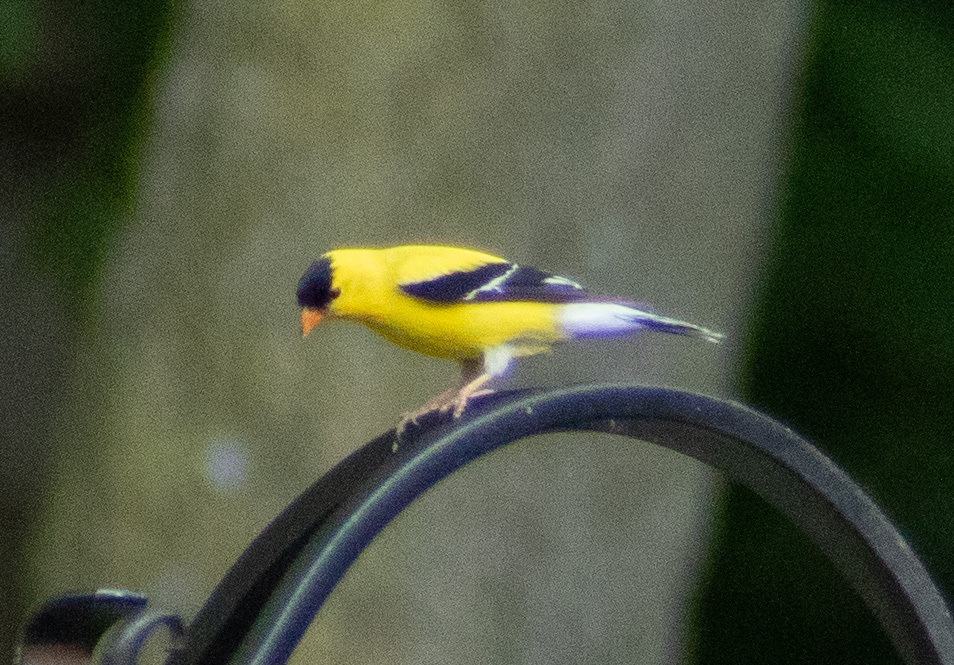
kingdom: Animalia
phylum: Chordata
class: Aves
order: Passeriformes
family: Fringillidae
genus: Spinus
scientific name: Spinus tristis
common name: American goldfinch
